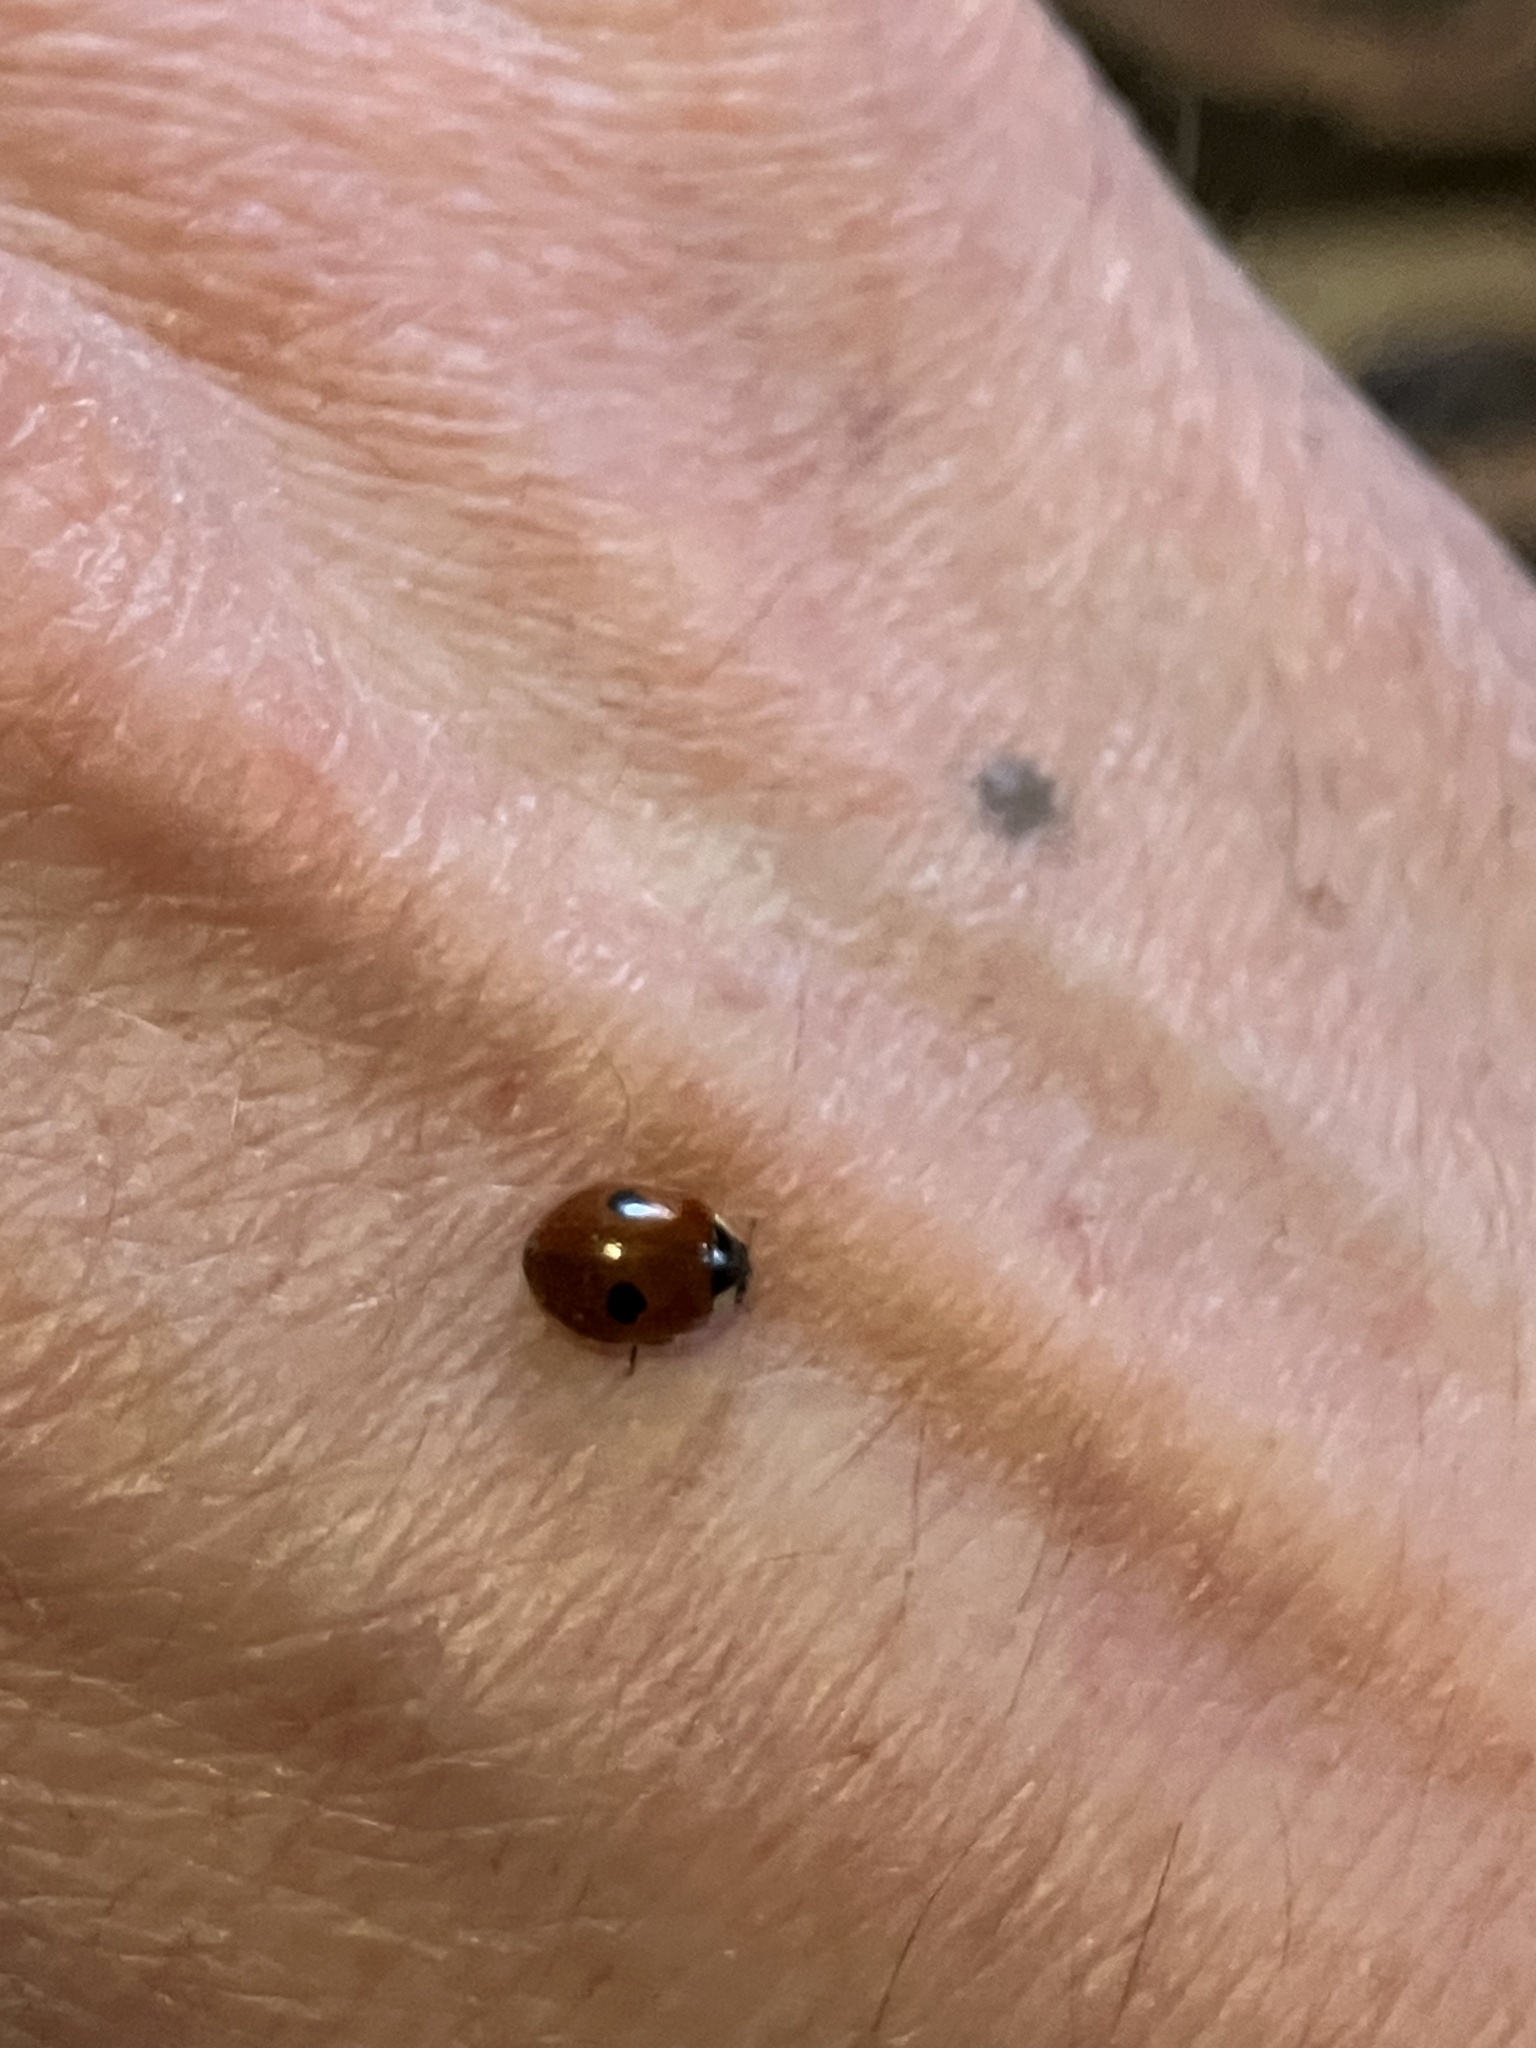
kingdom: Animalia
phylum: Arthropoda
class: Insecta
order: Coleoptera
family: Coccinellidae
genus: Adalia
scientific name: Adalia bipunctata
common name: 2-spot ladybird
